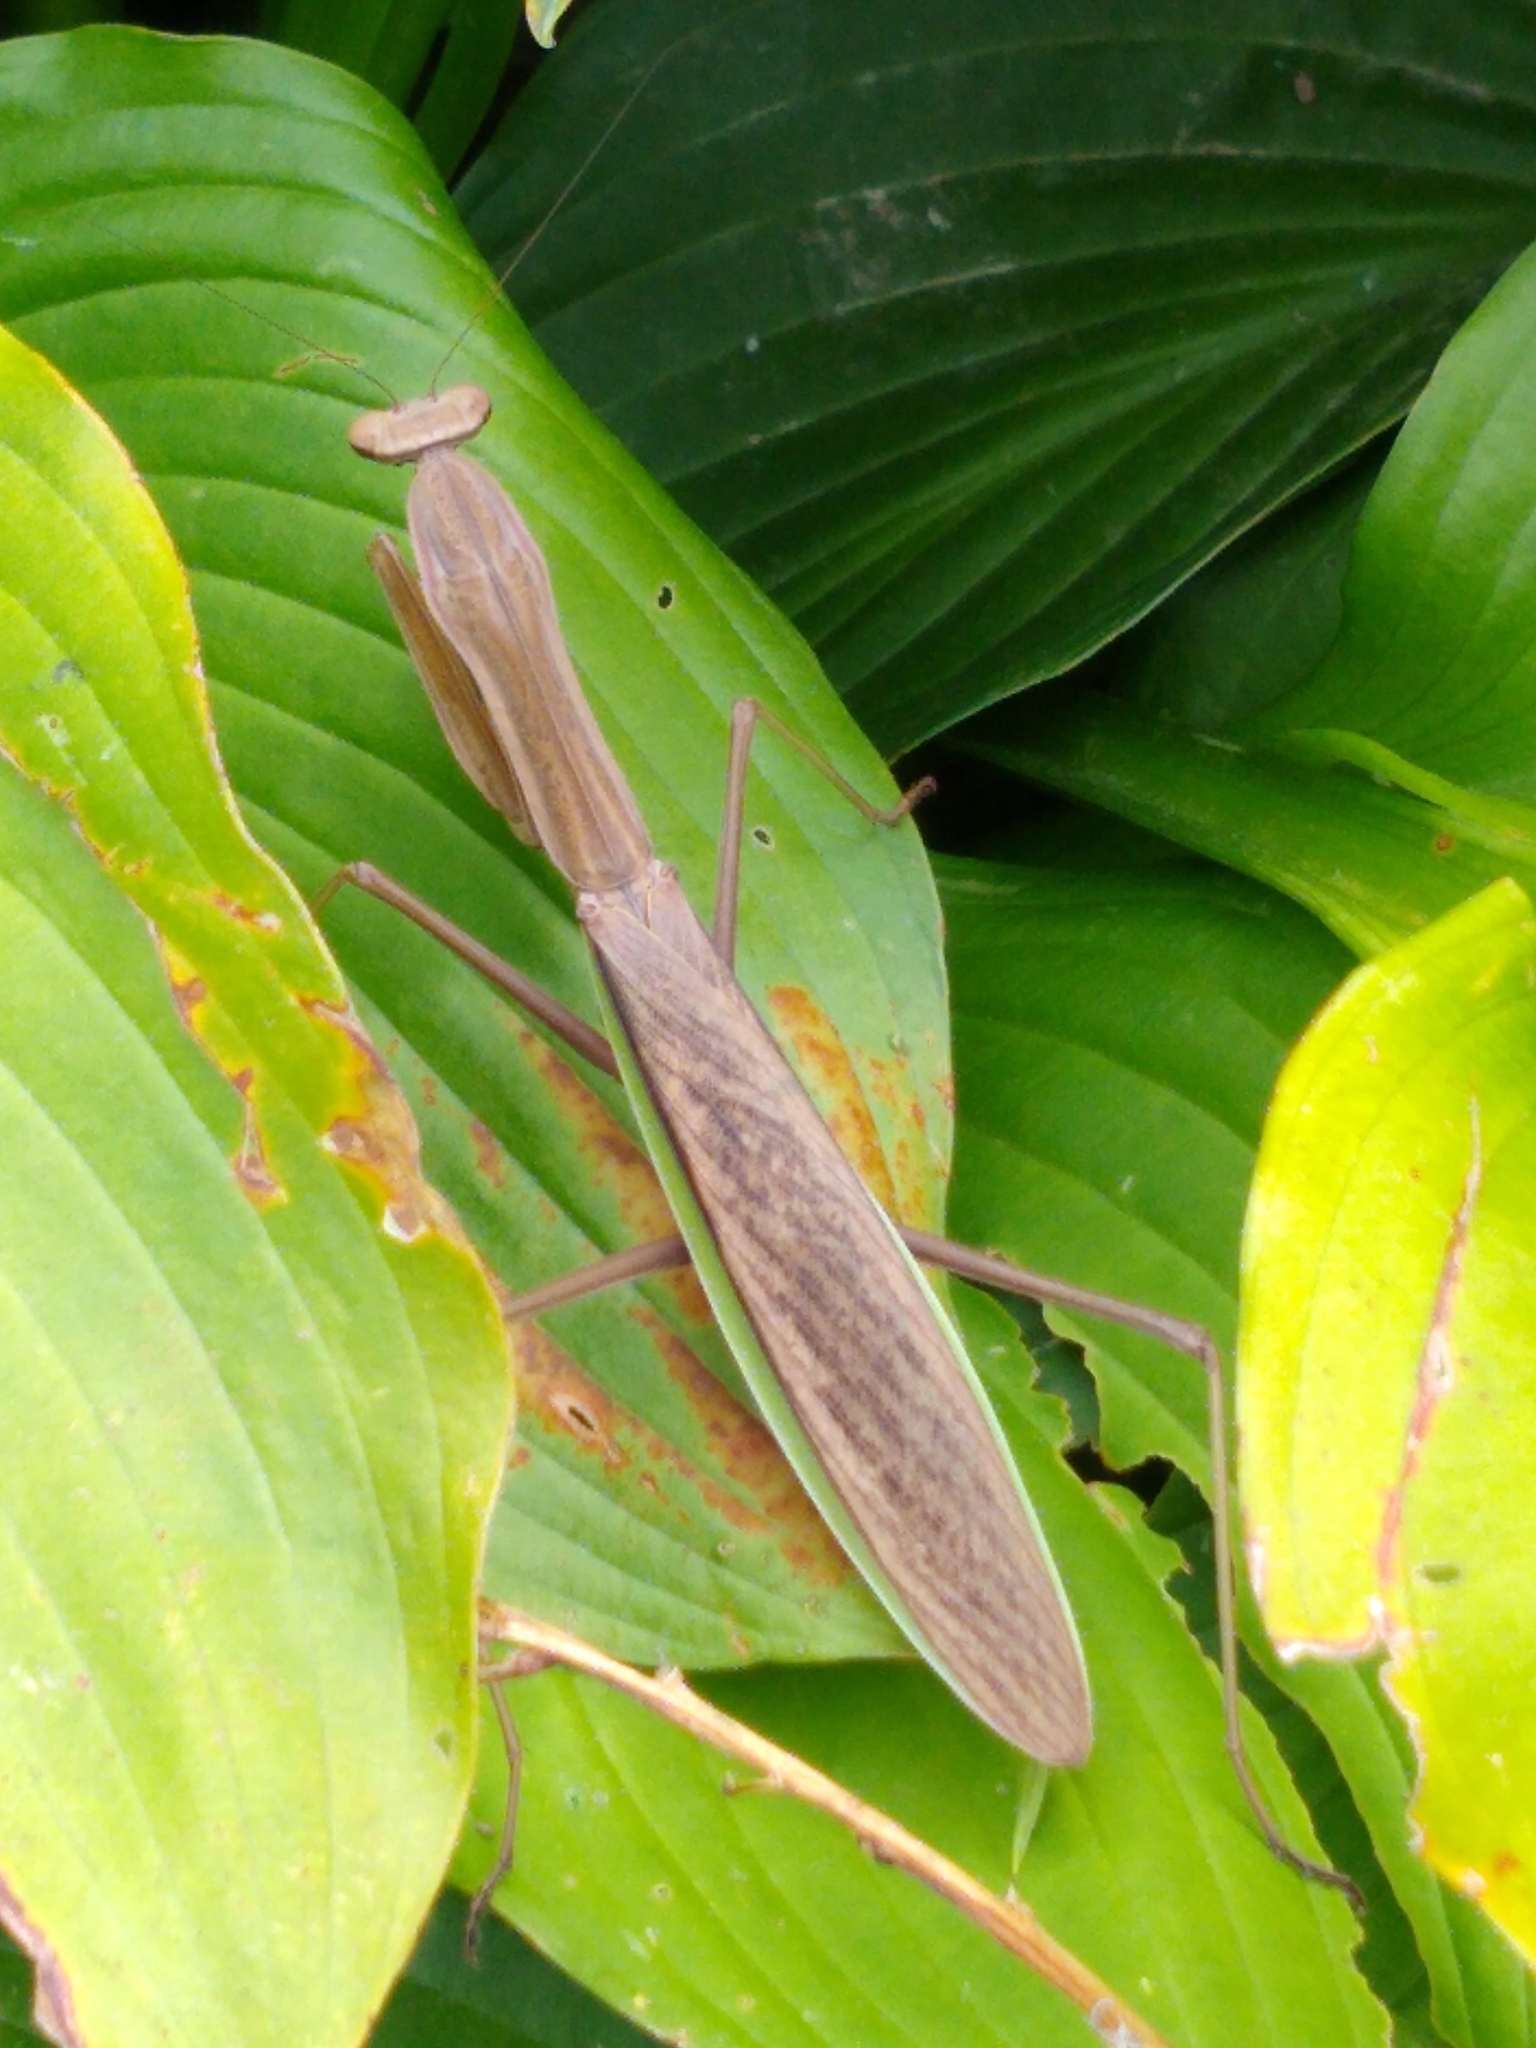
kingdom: Animalia
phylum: Arthropoda
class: Insecta
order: Mantodea
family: Mantidae
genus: Tenodera
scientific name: Tenodera sinensis
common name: Chinese mantis
